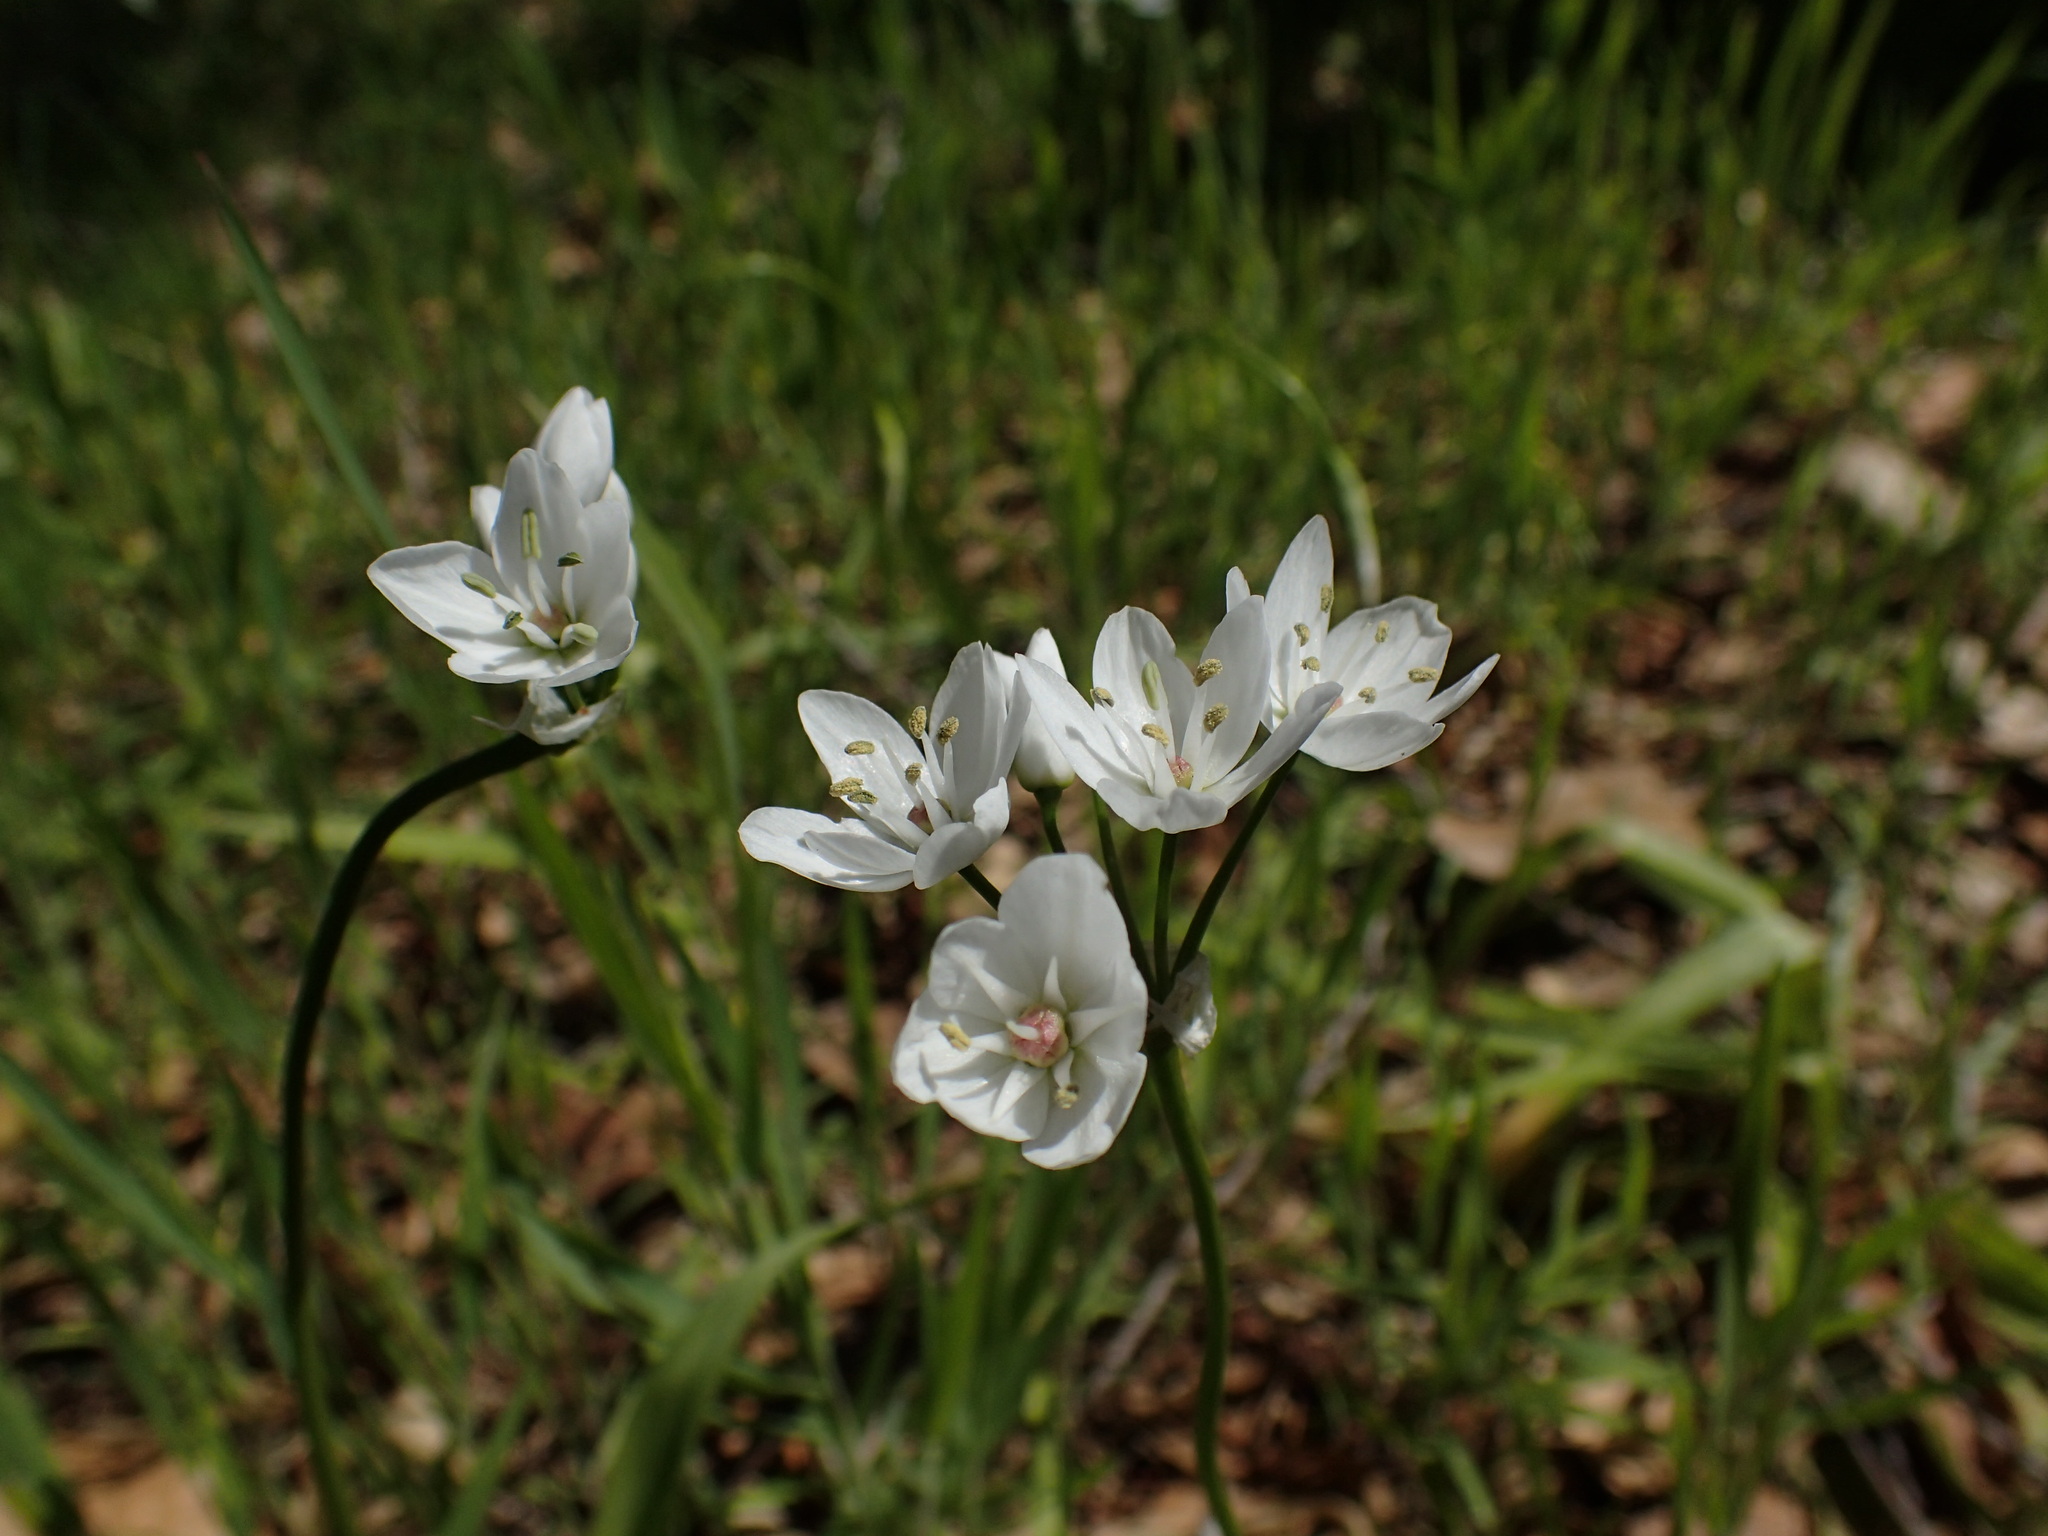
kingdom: Plantae
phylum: Tracheophyta
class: Liliopsida
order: Asparagales
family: Amaryllidaceae
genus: Allium
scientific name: Allium neapolitanum
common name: Neapolitan garlic
